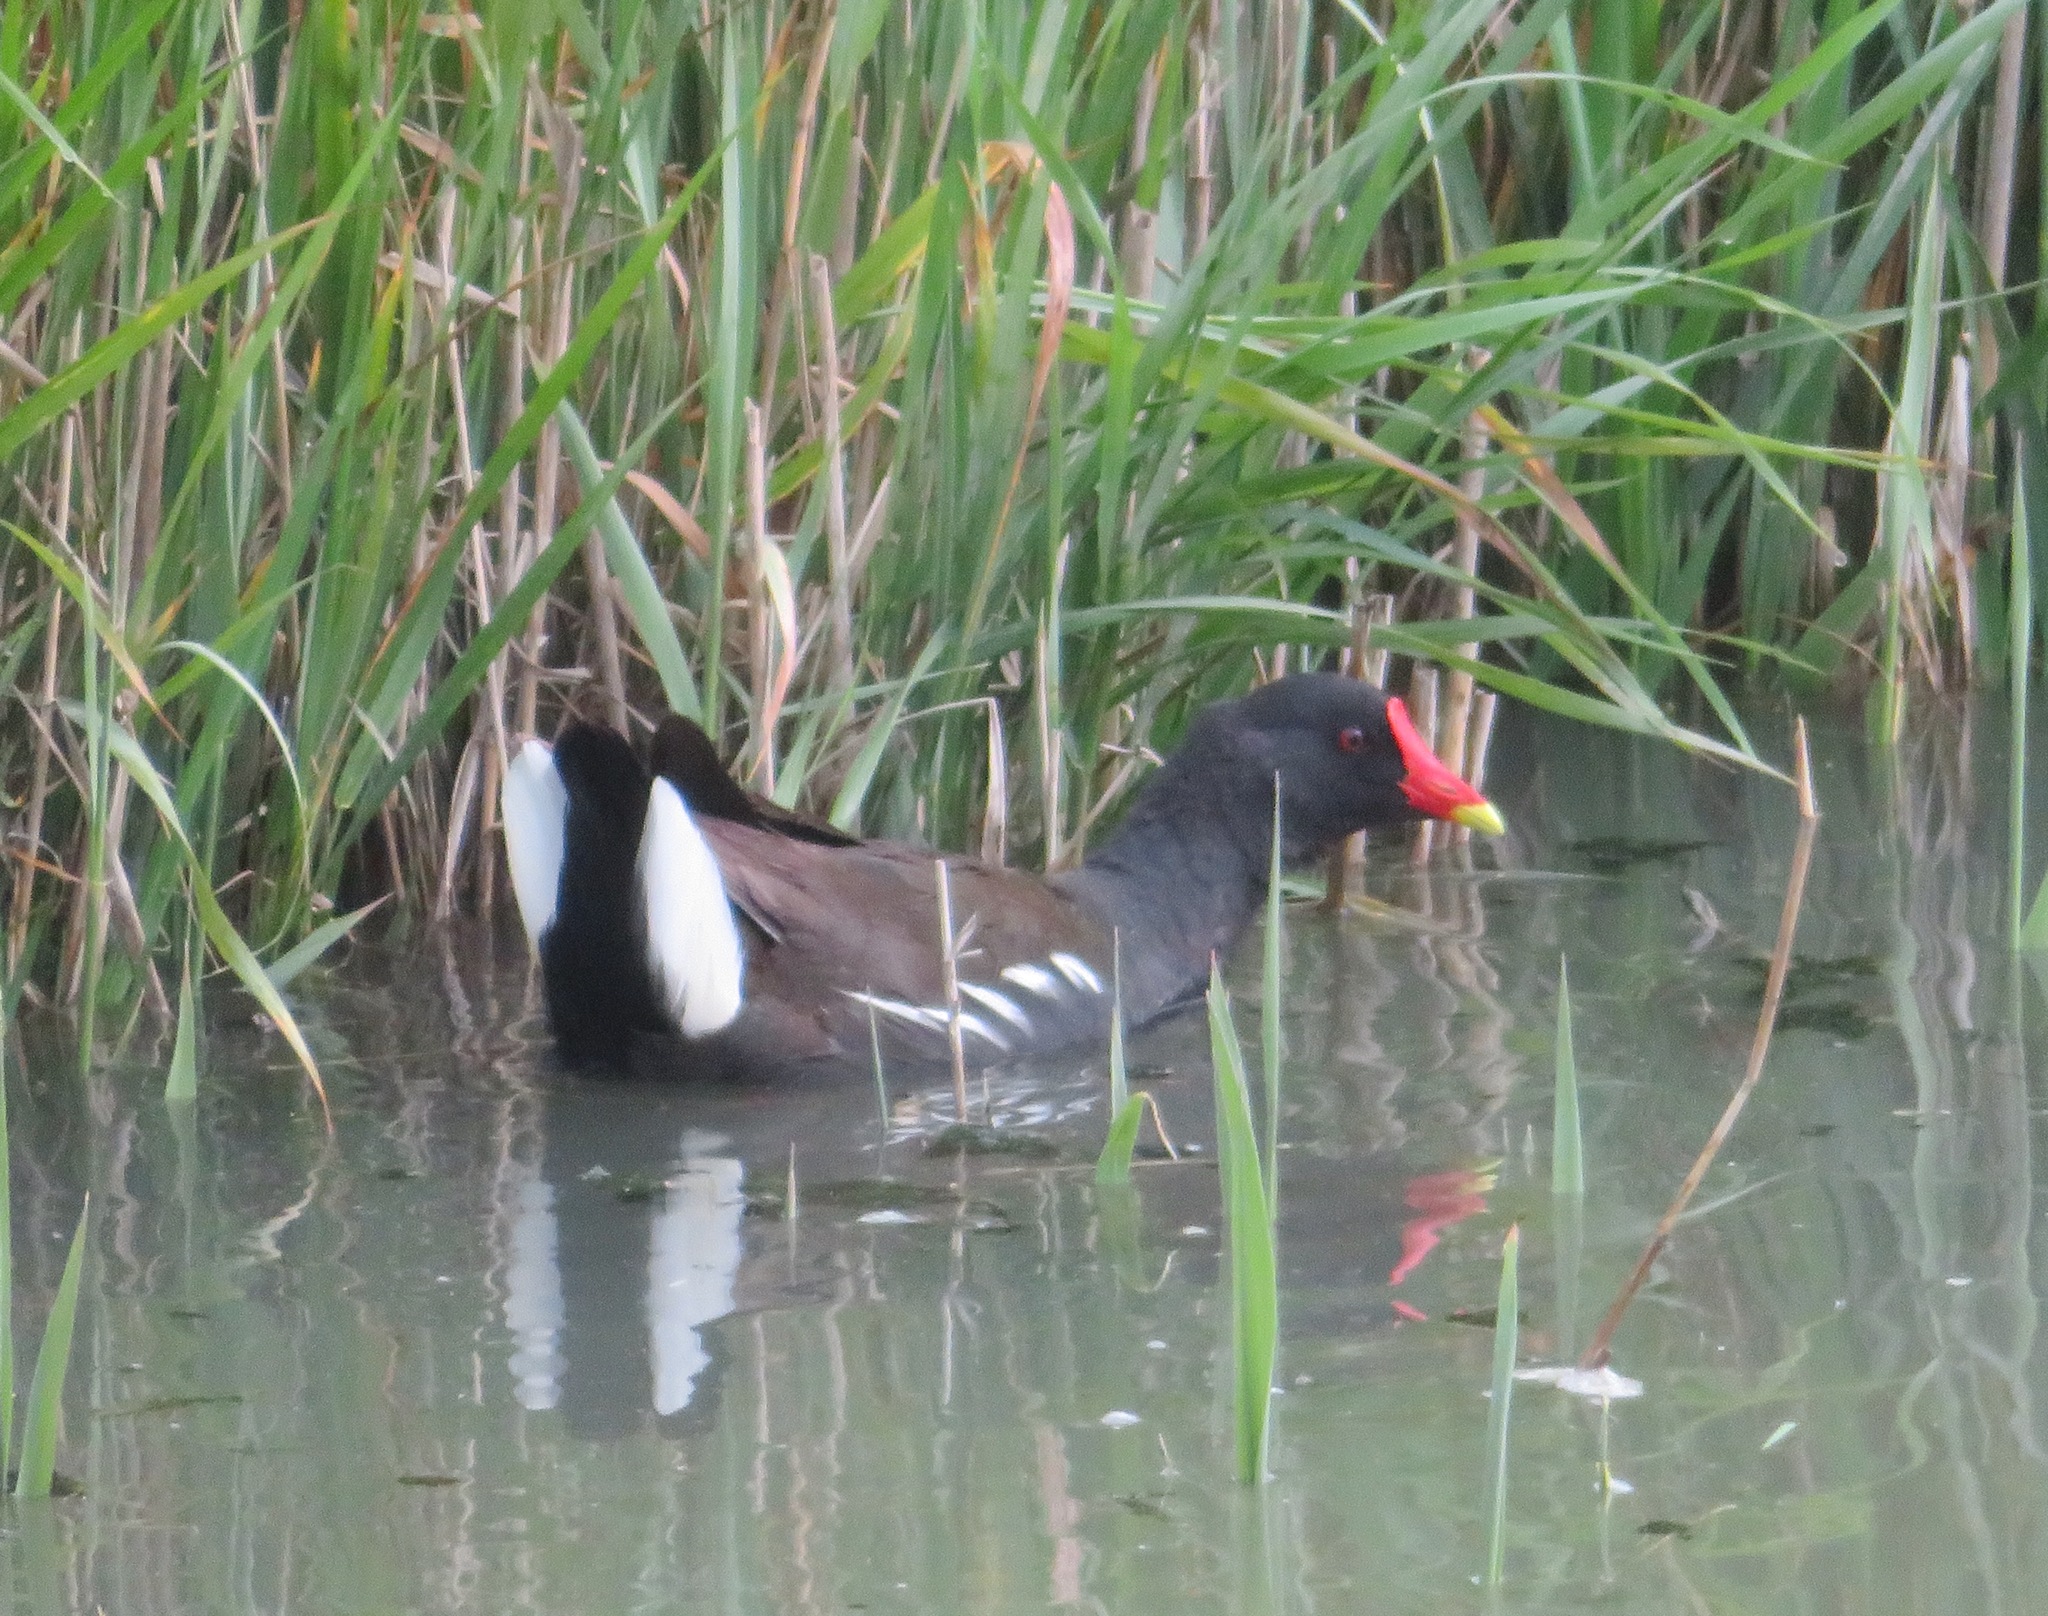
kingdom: Animalia
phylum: Chordata
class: Aves
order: Gruiformes
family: Rallidae
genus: Gallinula
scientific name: Gallinula chloropus
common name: Common moorhen
